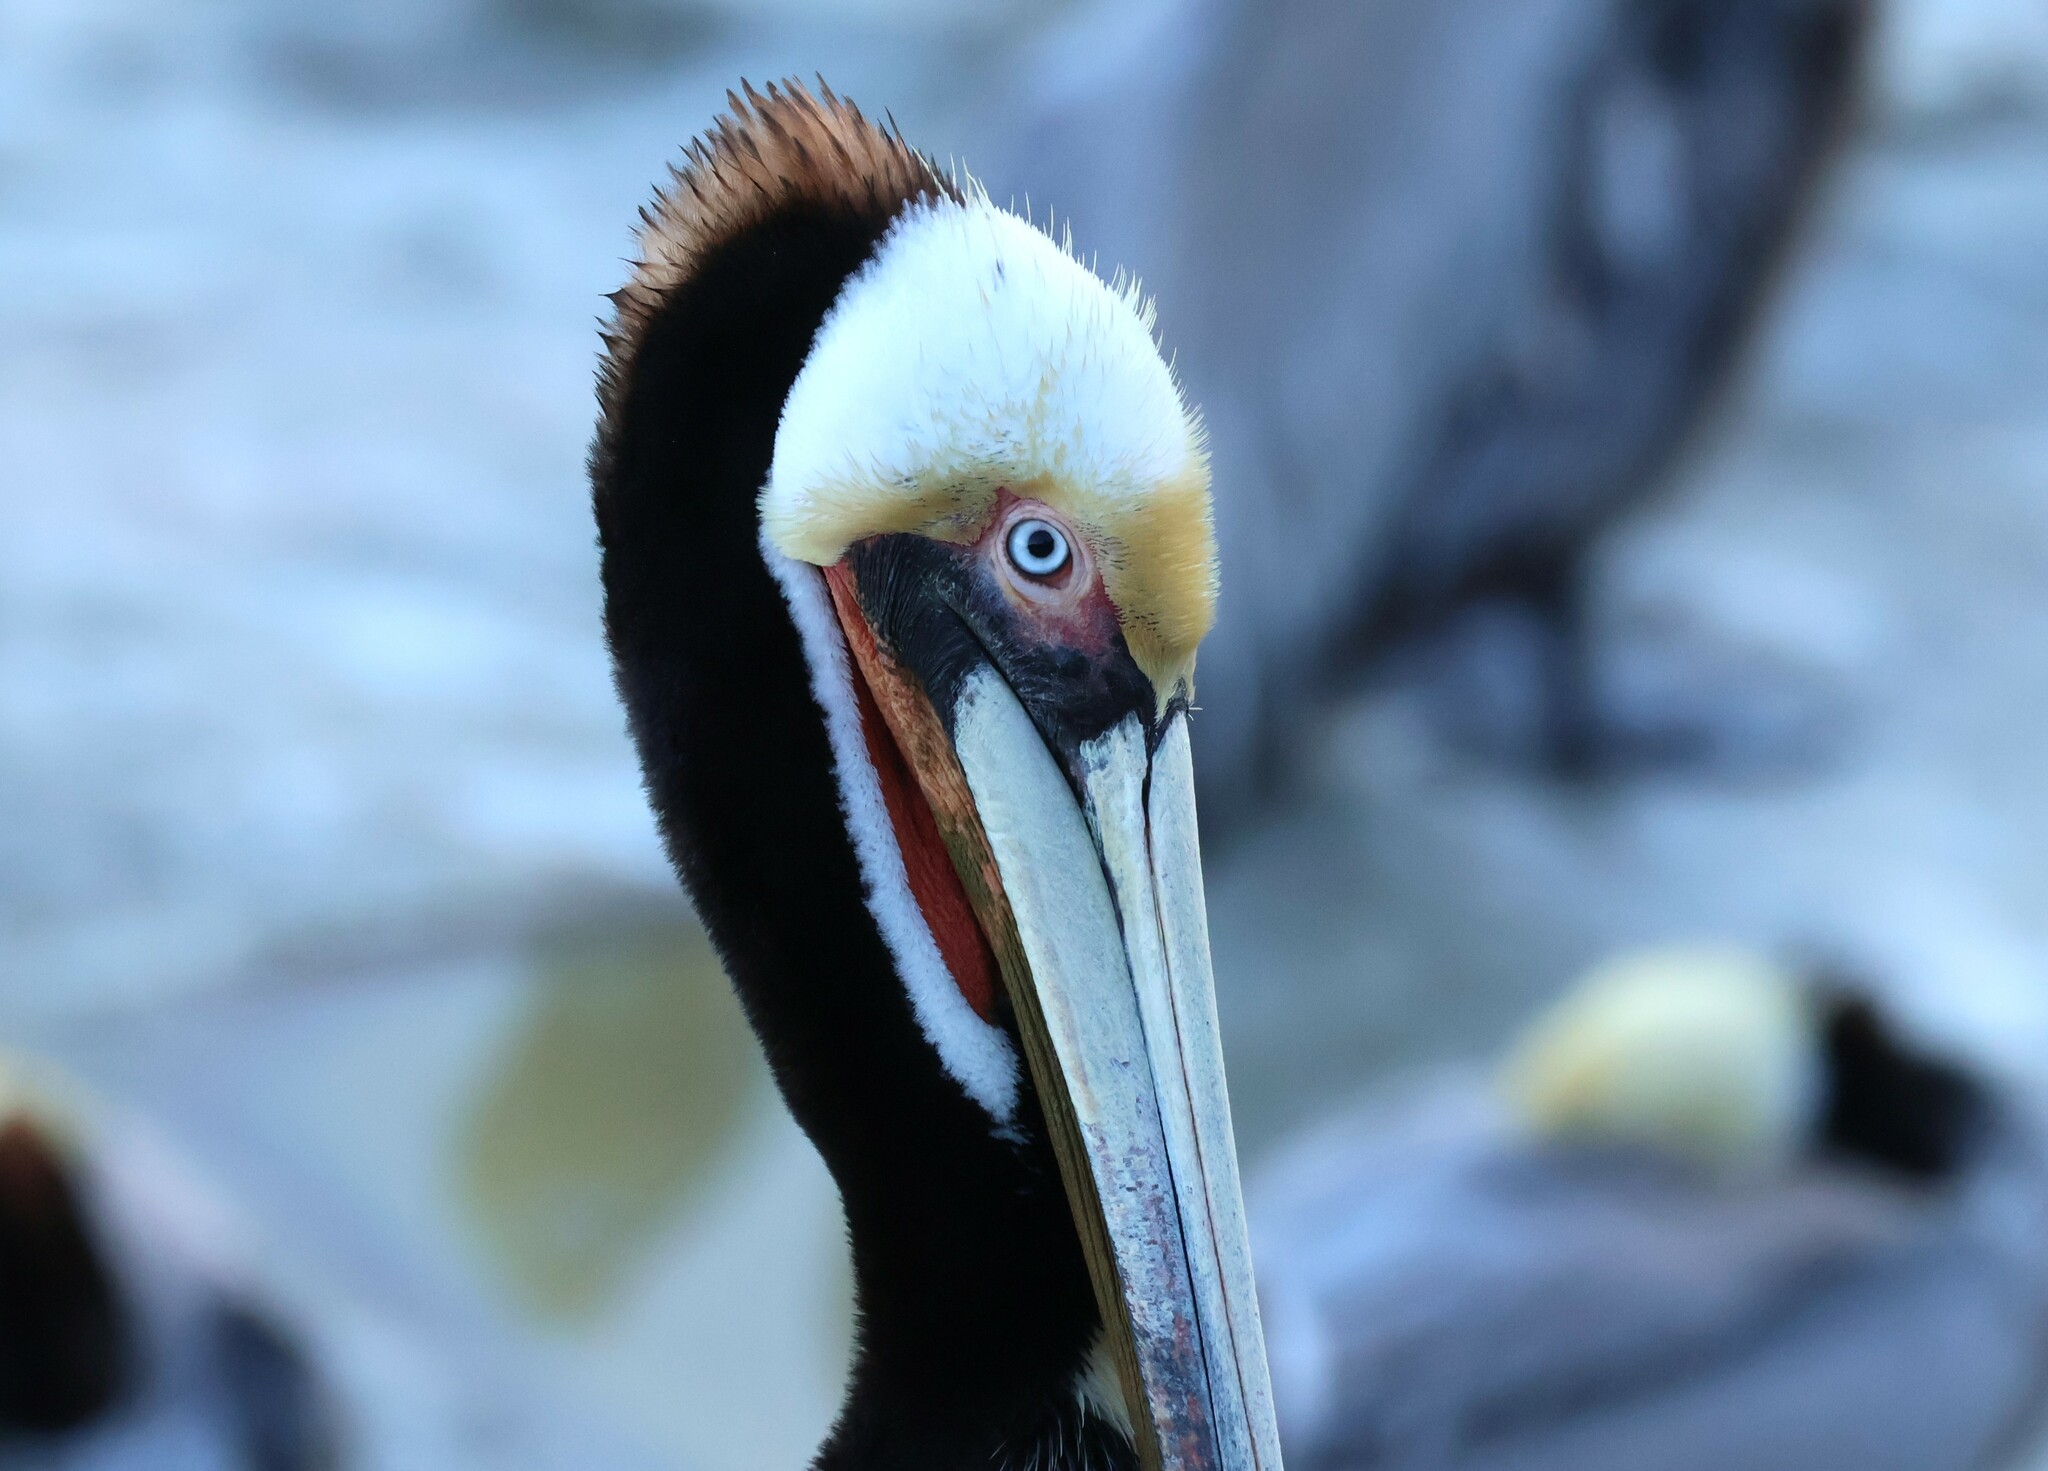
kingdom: Animalia
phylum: Chordata
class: Aves
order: Pelecaniformes
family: Pelecanidae
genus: Pelecanus
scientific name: Pelecanus occidentalis
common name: Brown pelican
